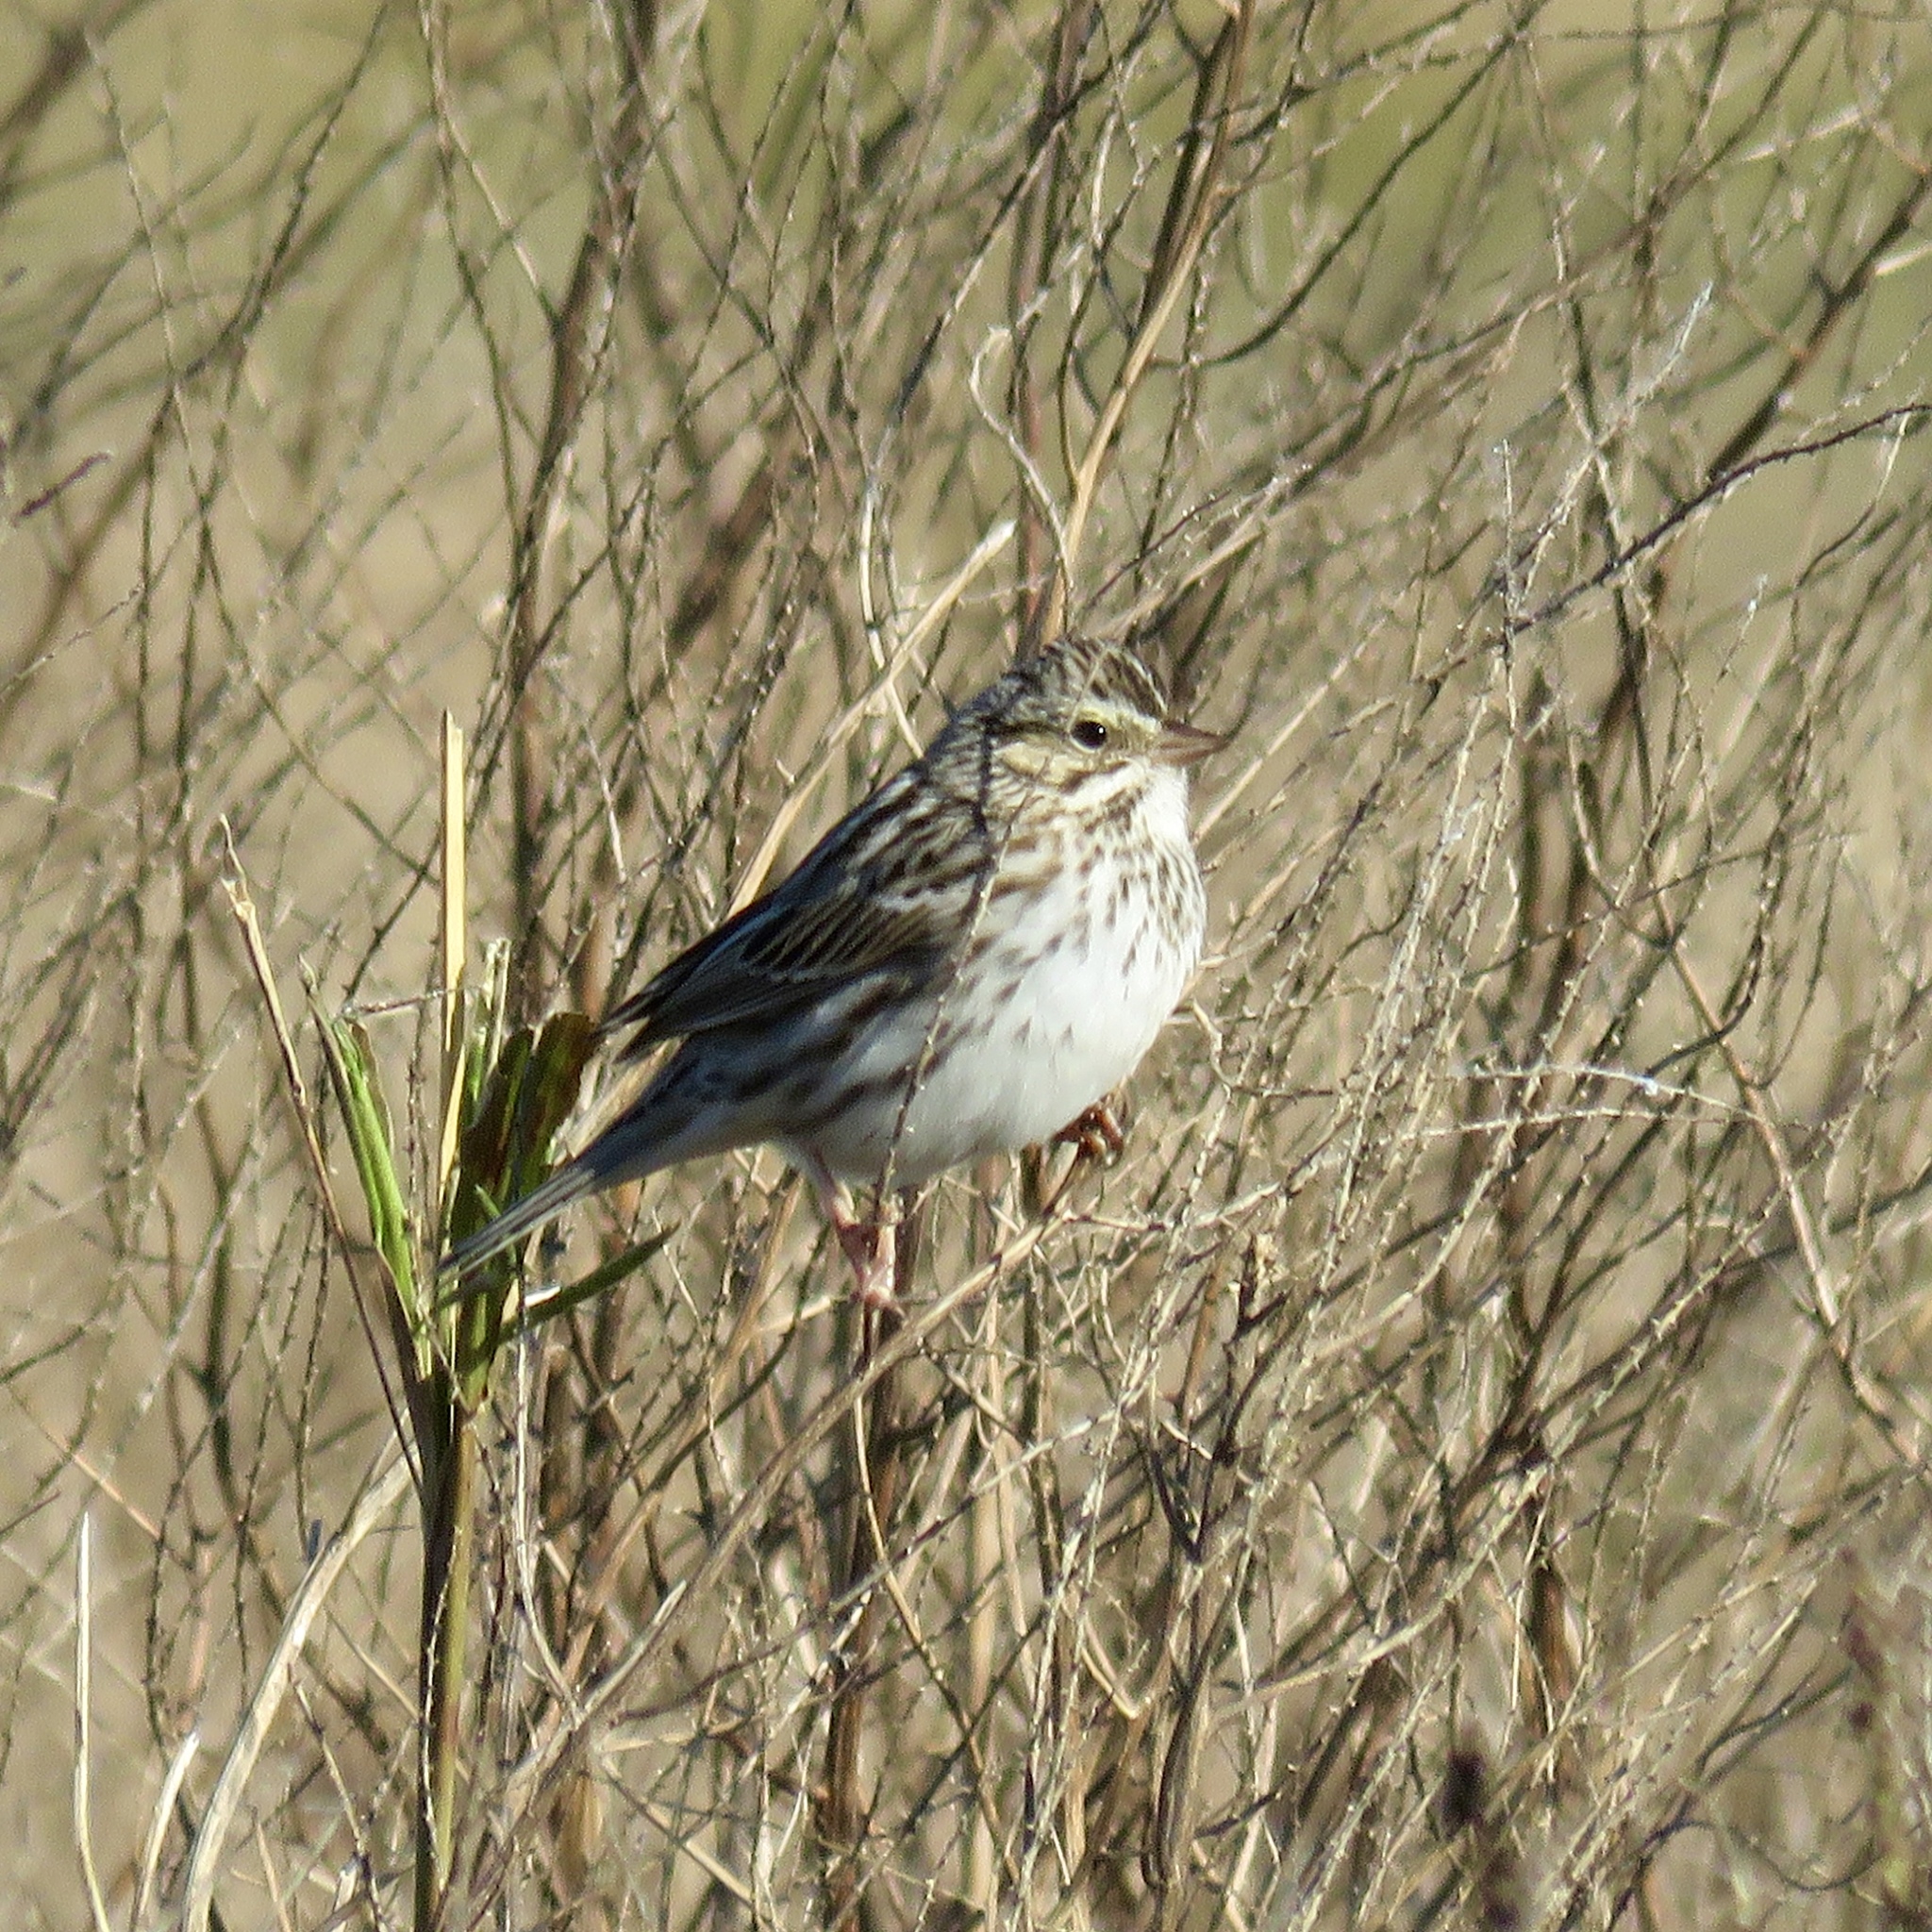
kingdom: Animalia
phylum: Chordata
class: Aves
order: Passeriformes
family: Passerellidae
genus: Passerculus
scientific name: Passerculus sandwichensis
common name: Savannah sparrow
